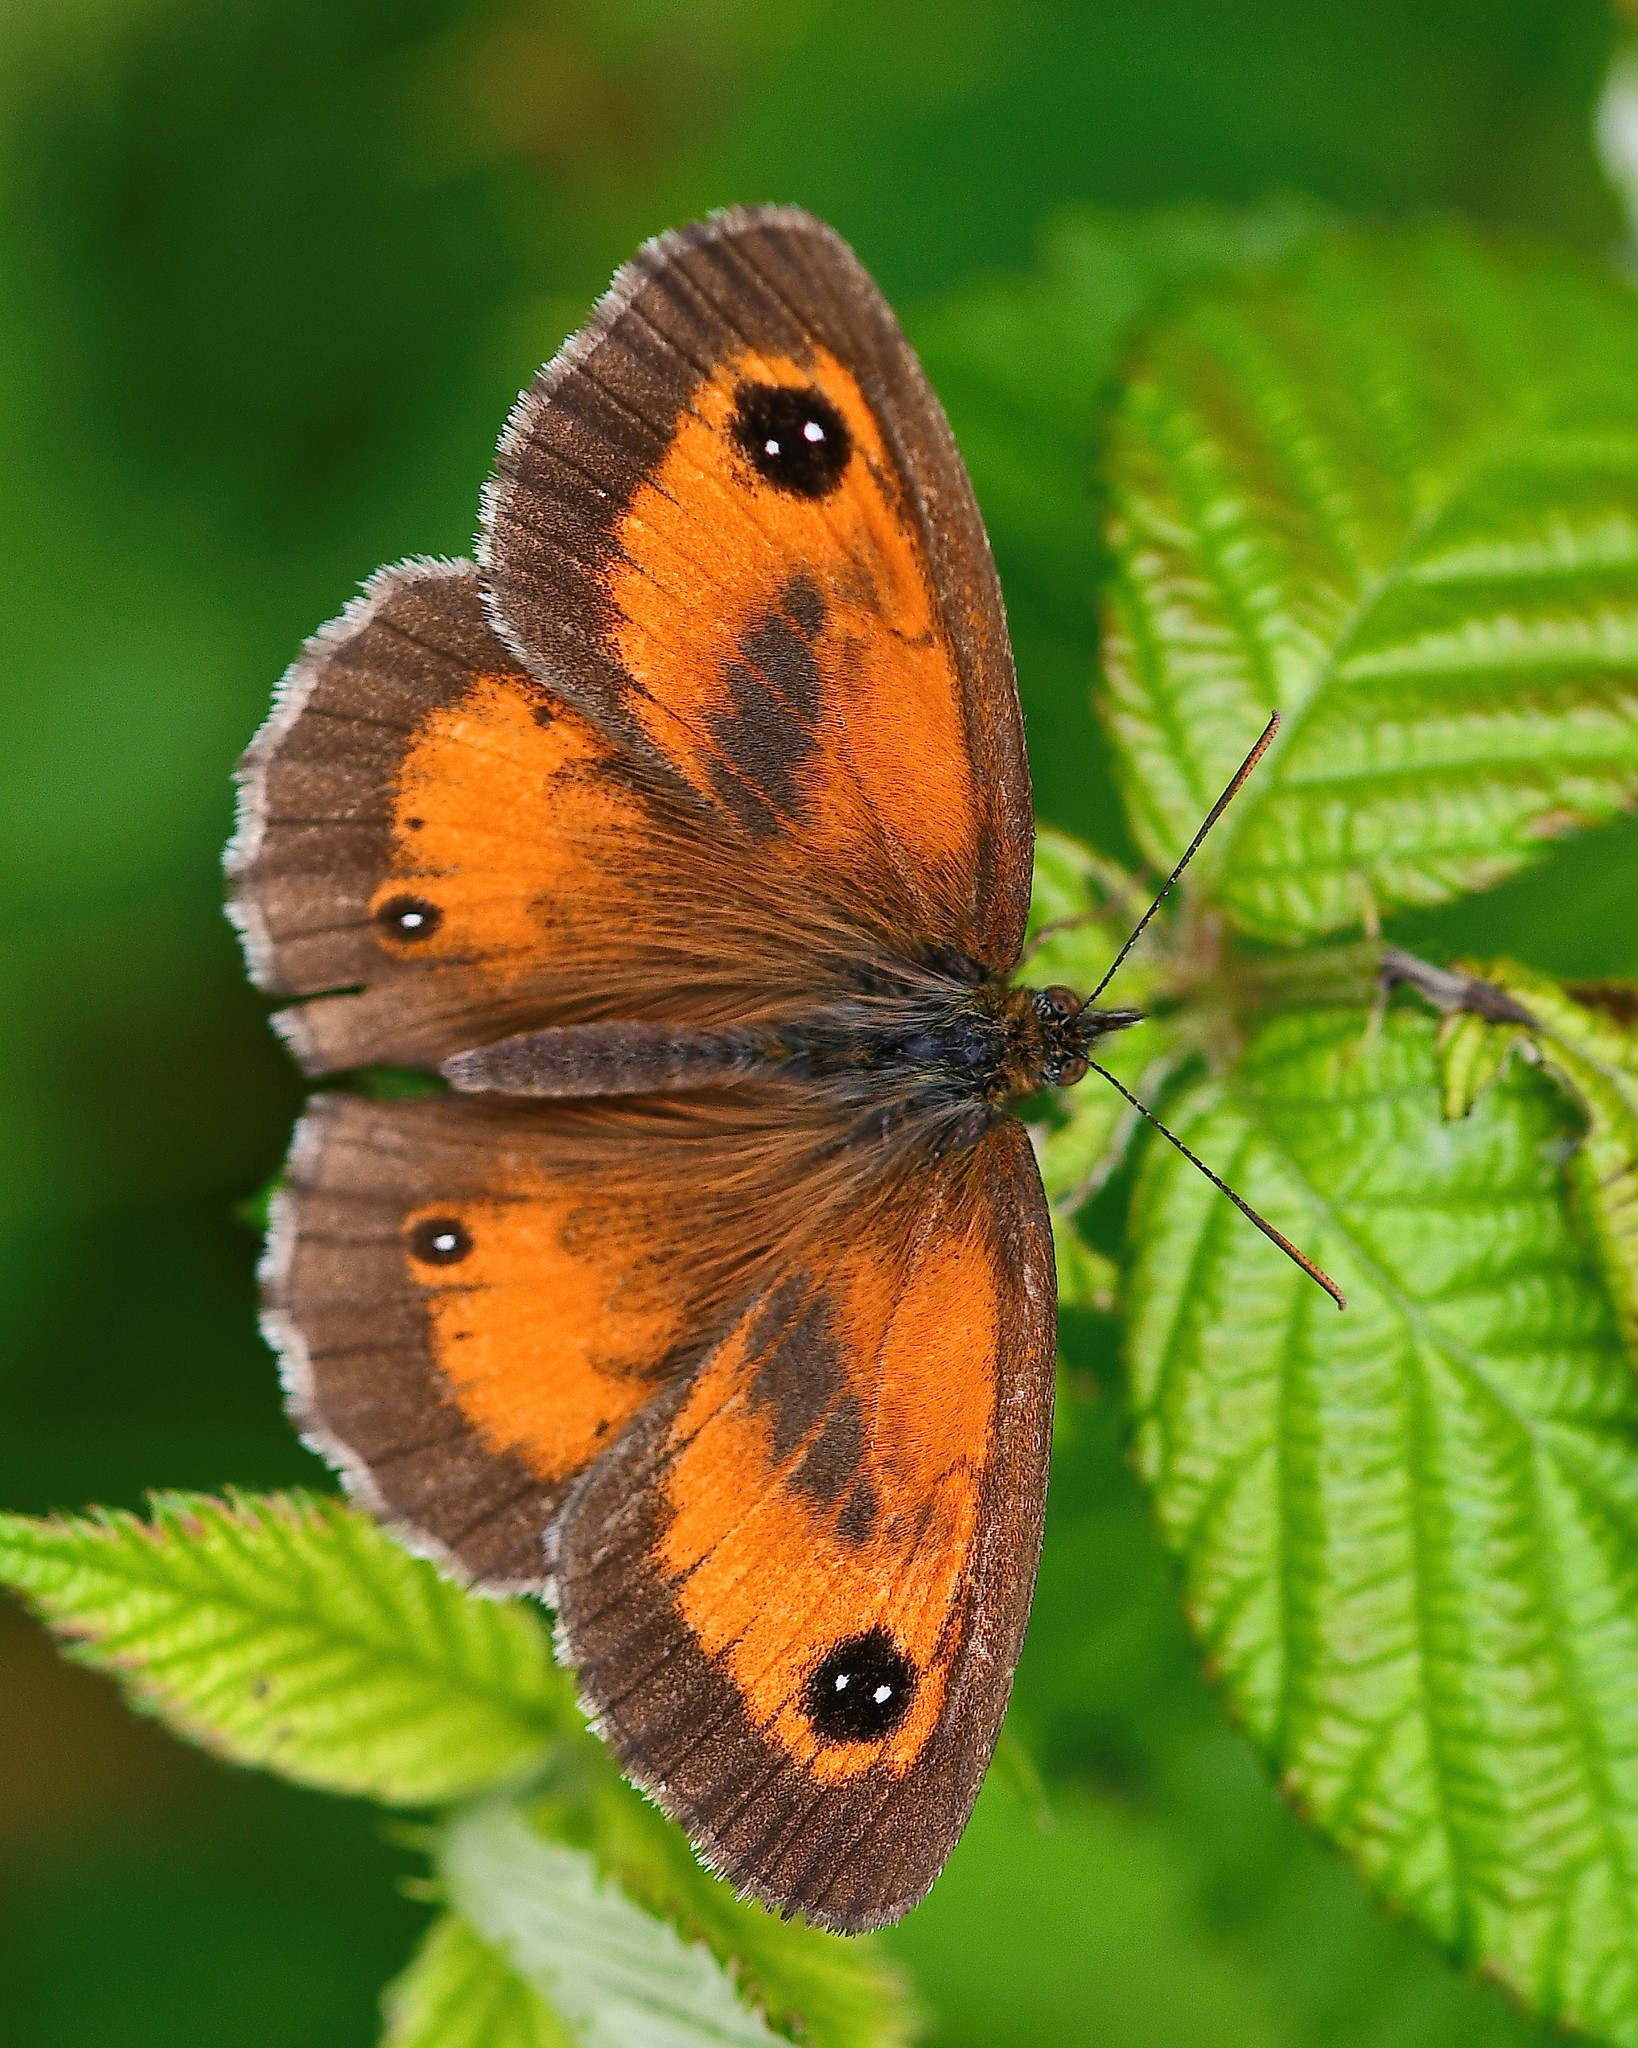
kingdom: Animalia
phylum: Arthropoda
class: Insecta
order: Lepidoptera
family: Nymphalidae
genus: Pyronia
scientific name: Pyronia tithonus
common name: Gatekeeper
